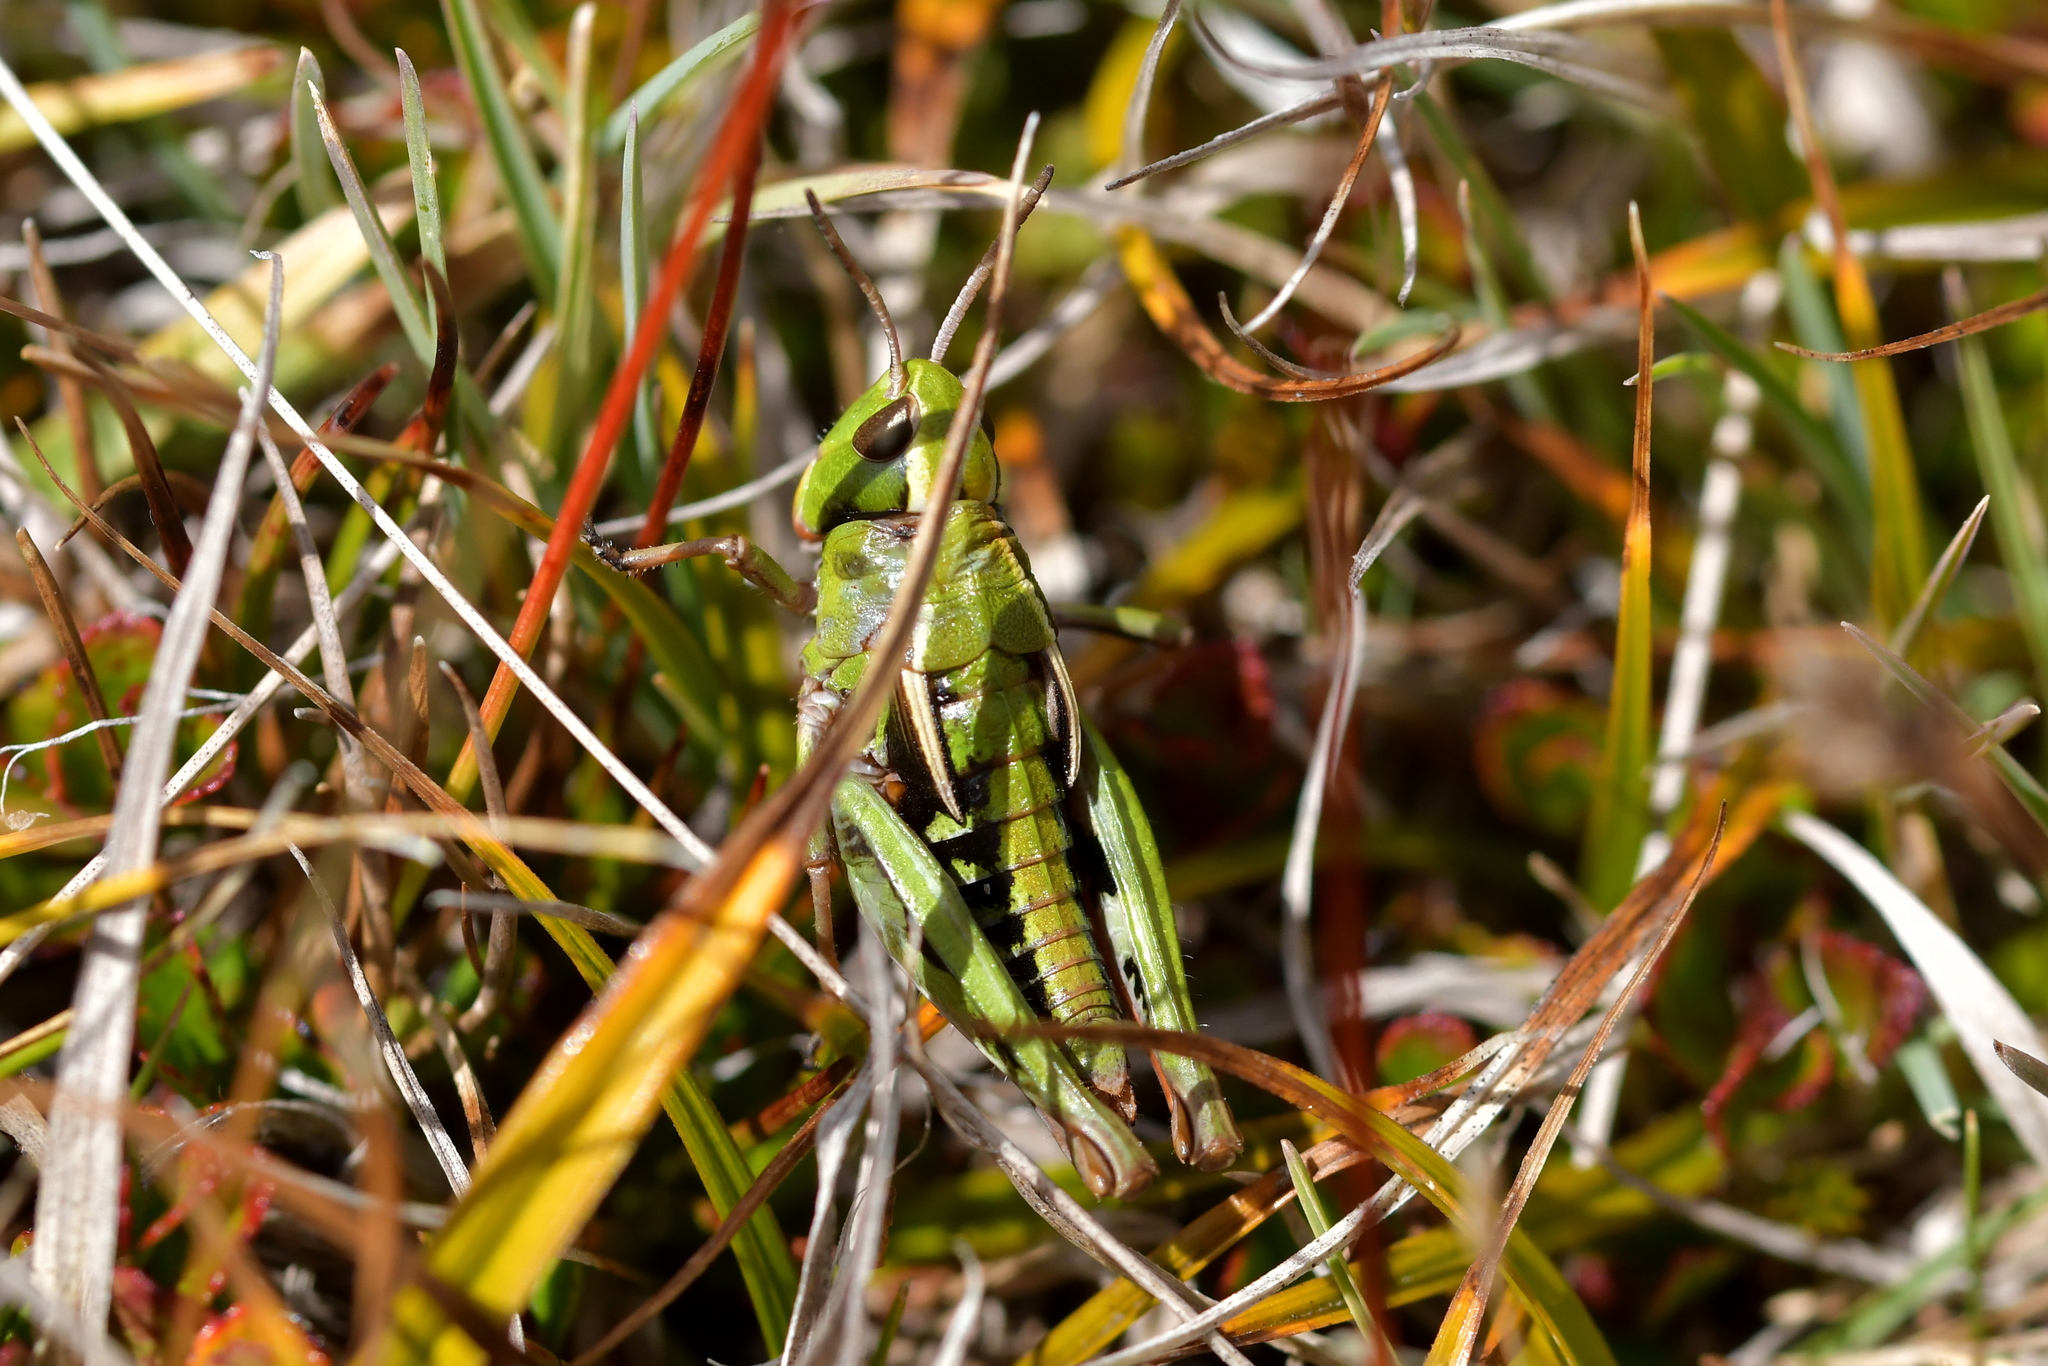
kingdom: Animalia
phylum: Arthropoda
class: Insecta
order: Orthoptera
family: Acrididae
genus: Sigaus
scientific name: Sigaus australis
